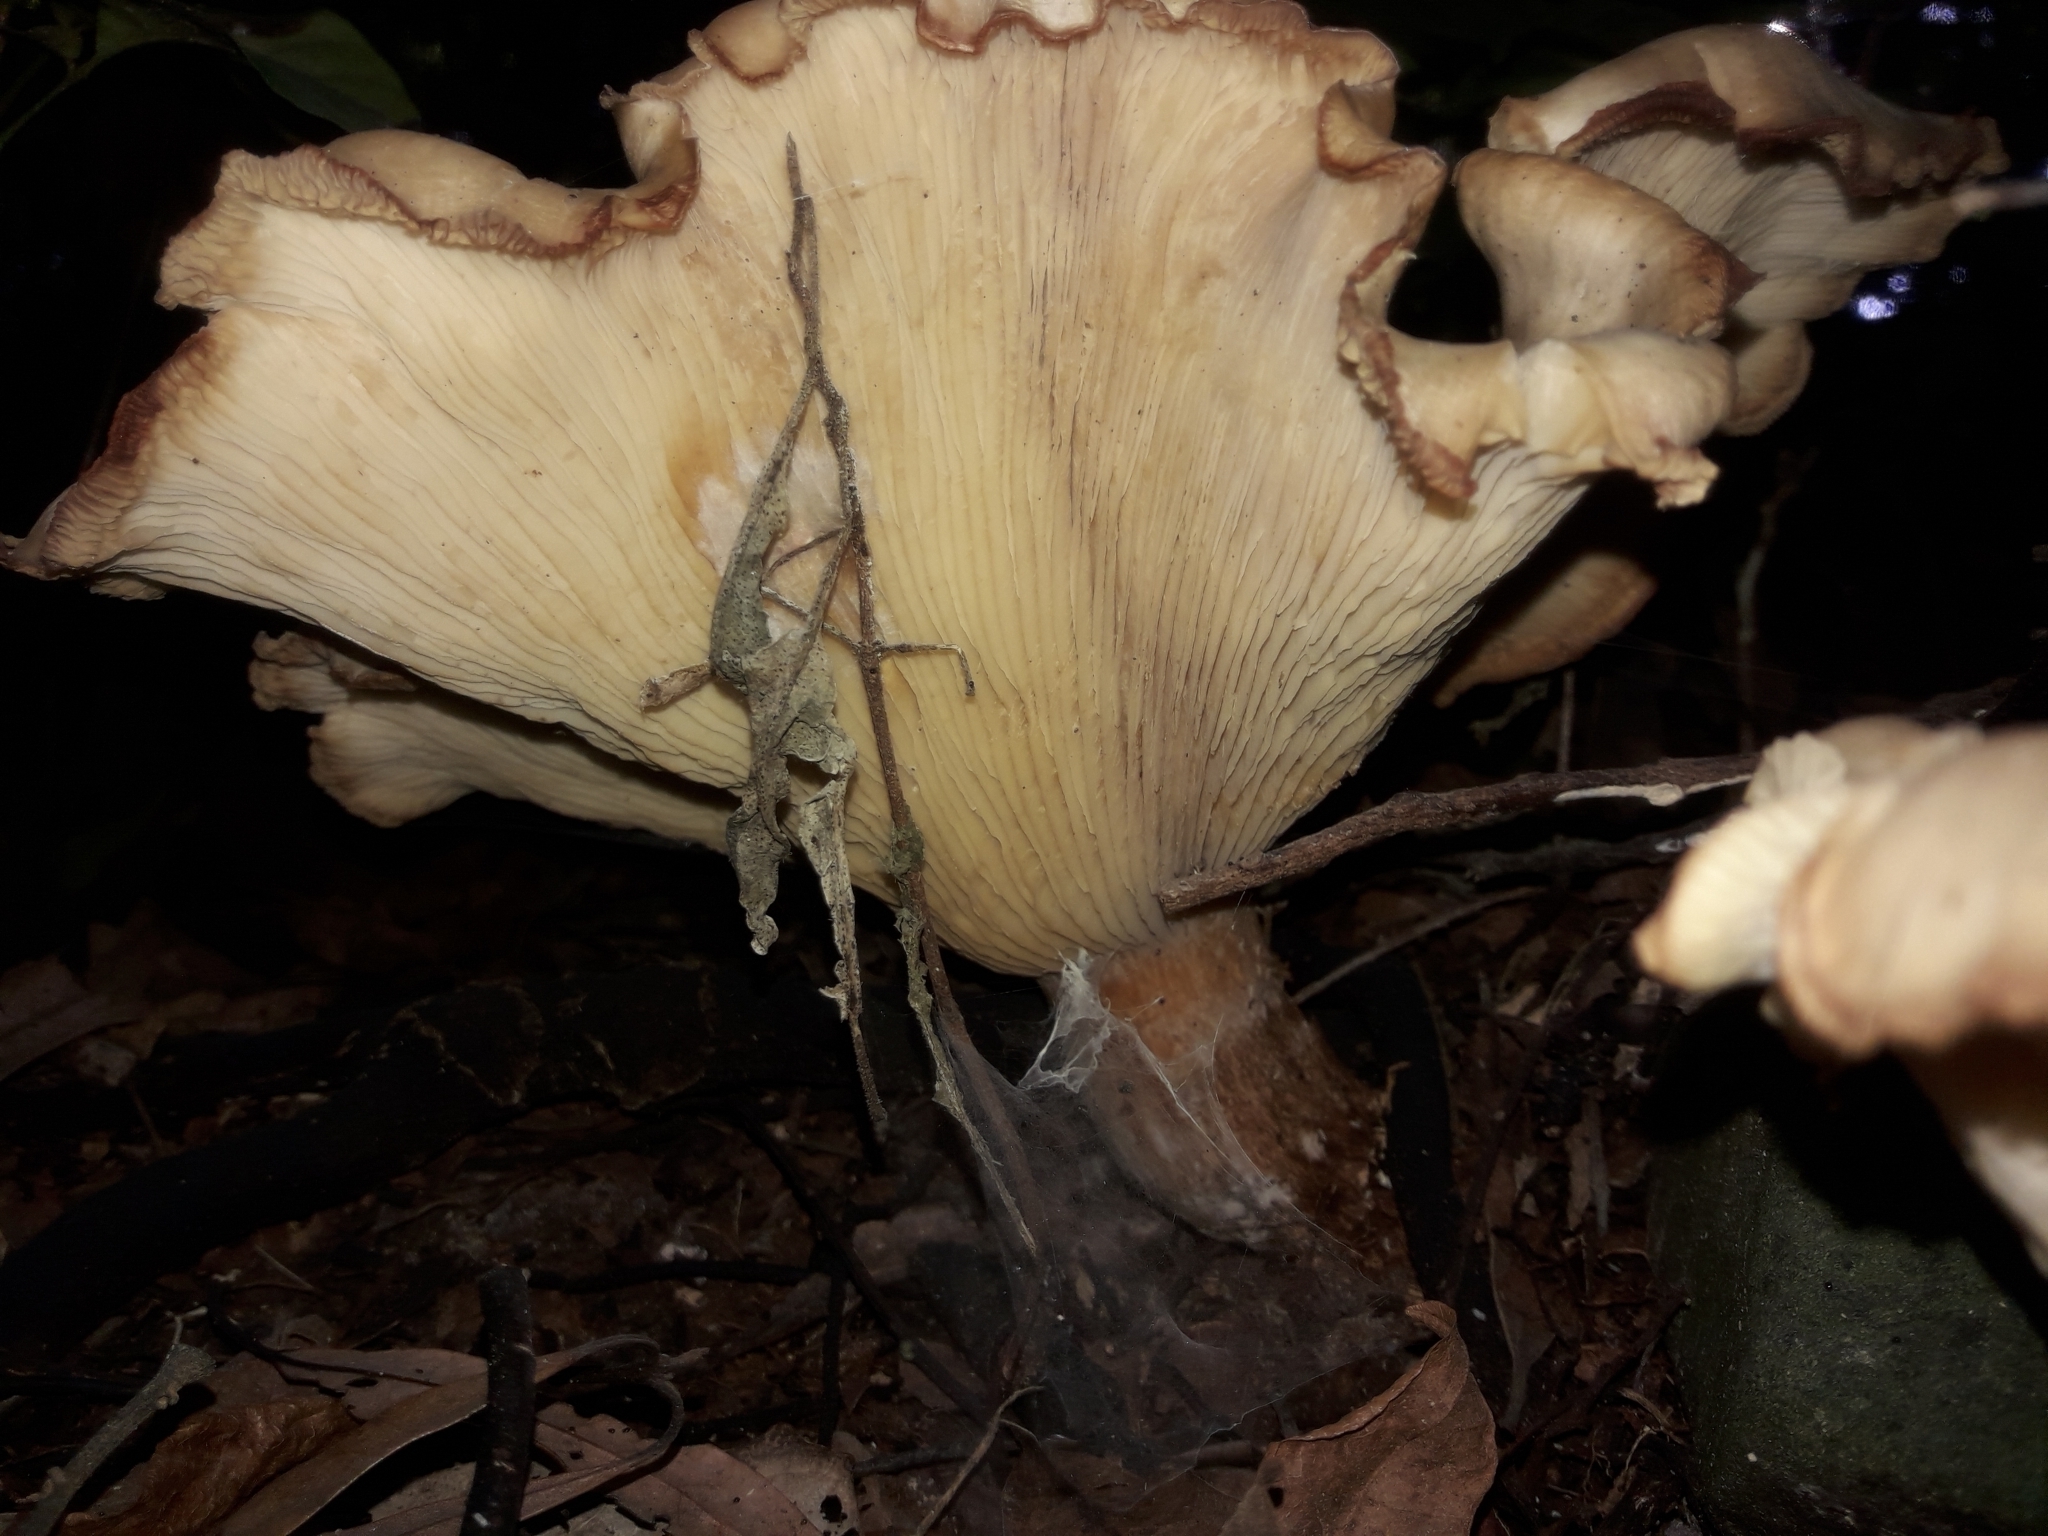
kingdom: Fungi
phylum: Basidiomycota
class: Agaricomycetes
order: Agaricales
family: Tricholomataceae
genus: Clitocybe
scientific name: Clitocybe nebularis
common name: Clouded agaric
